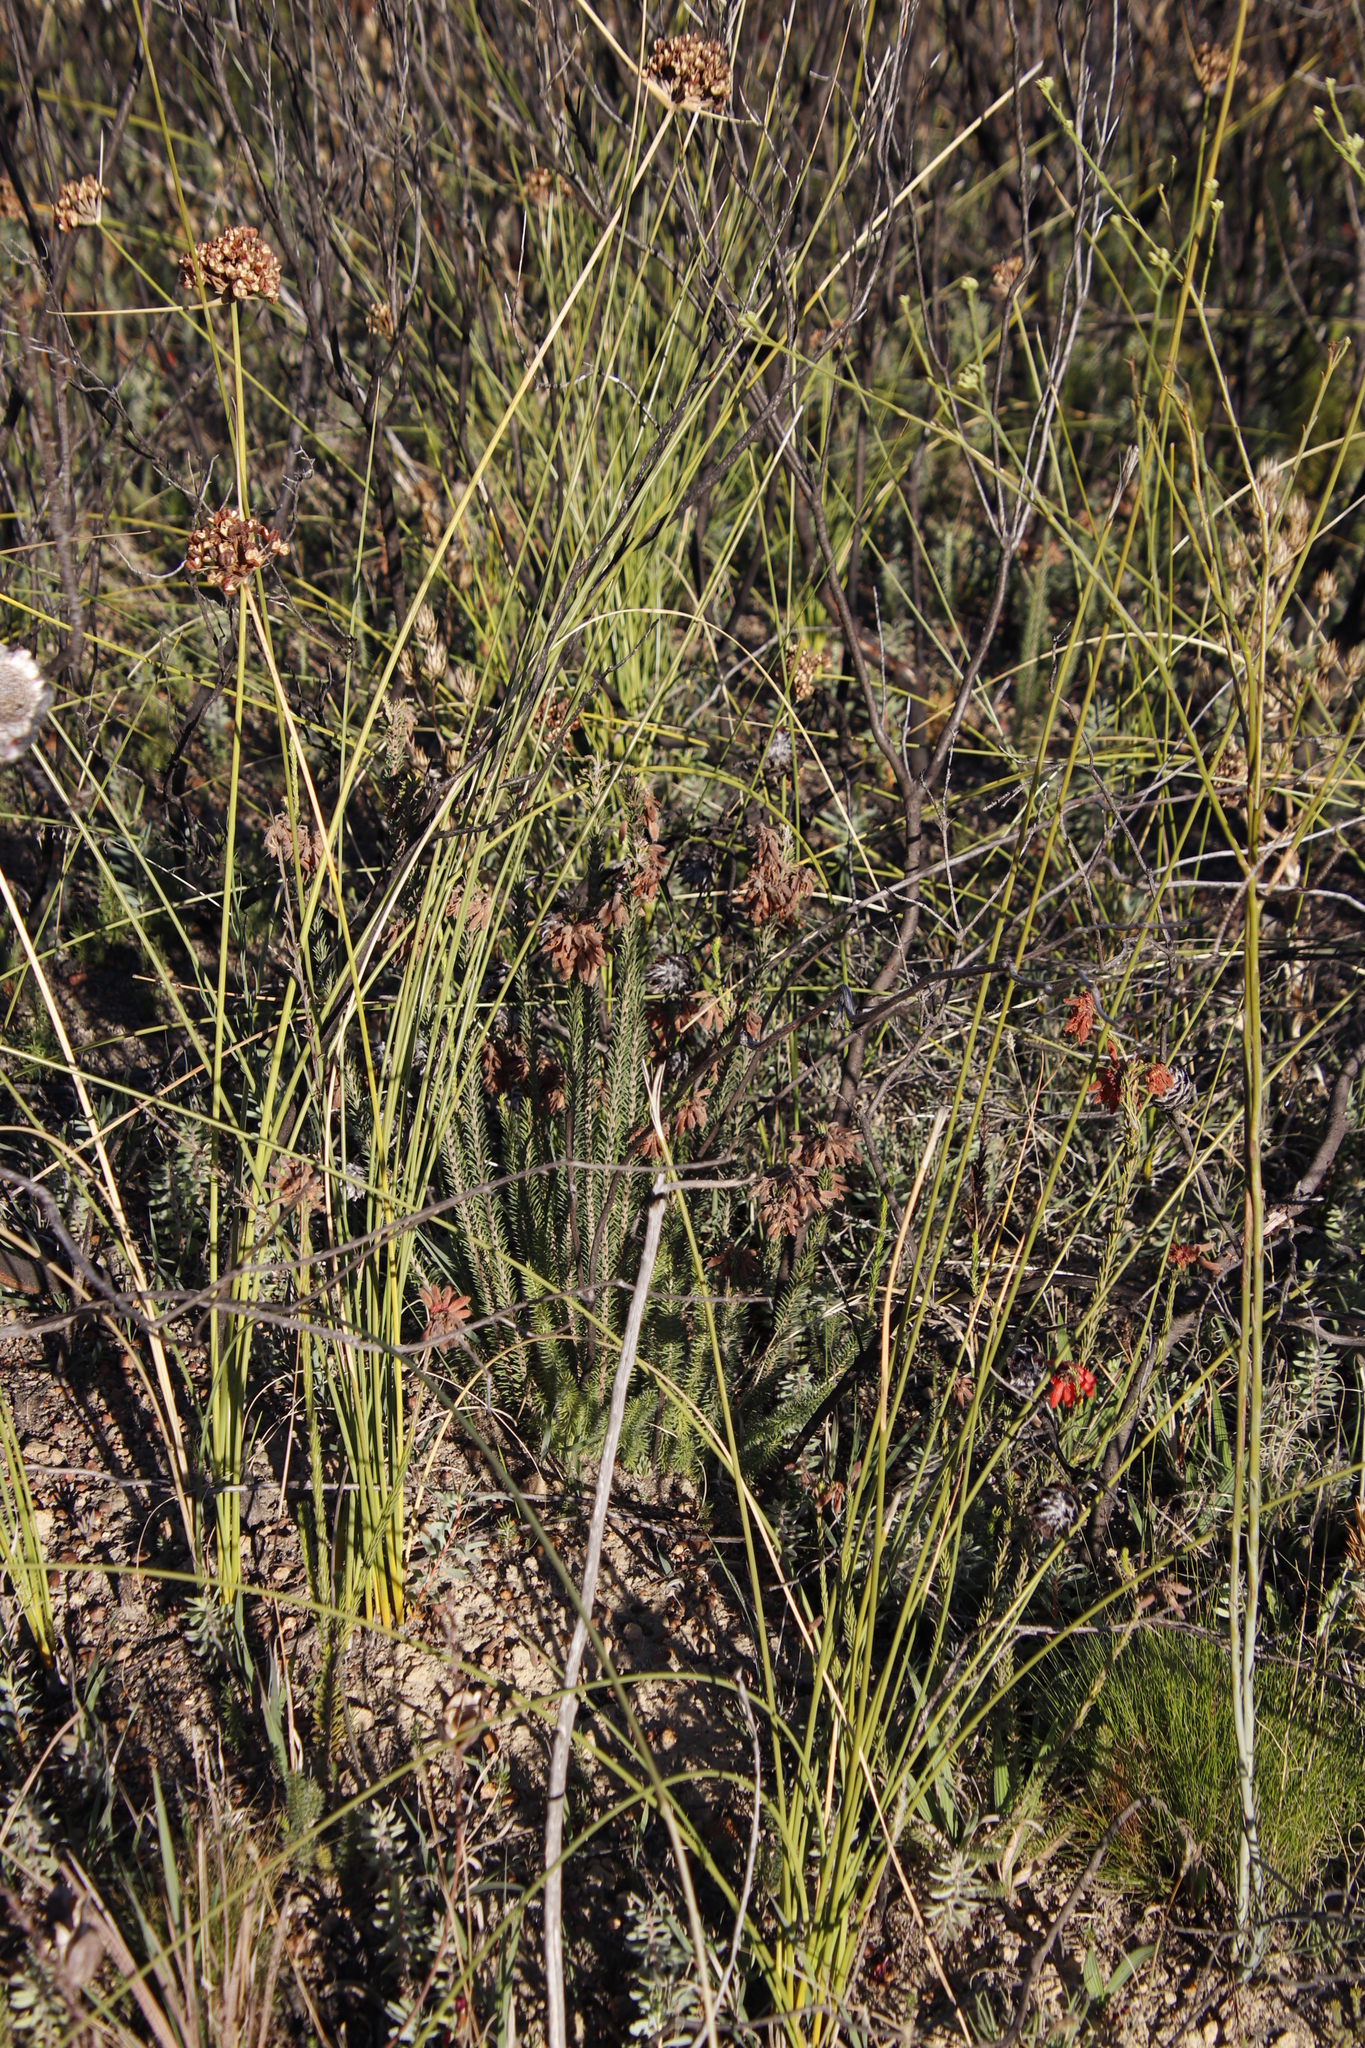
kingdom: Plantae
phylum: Tracheophyta
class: Magnoliopsida
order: Ericales
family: Ericaceae
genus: Erica
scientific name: Erica cerinthoides
